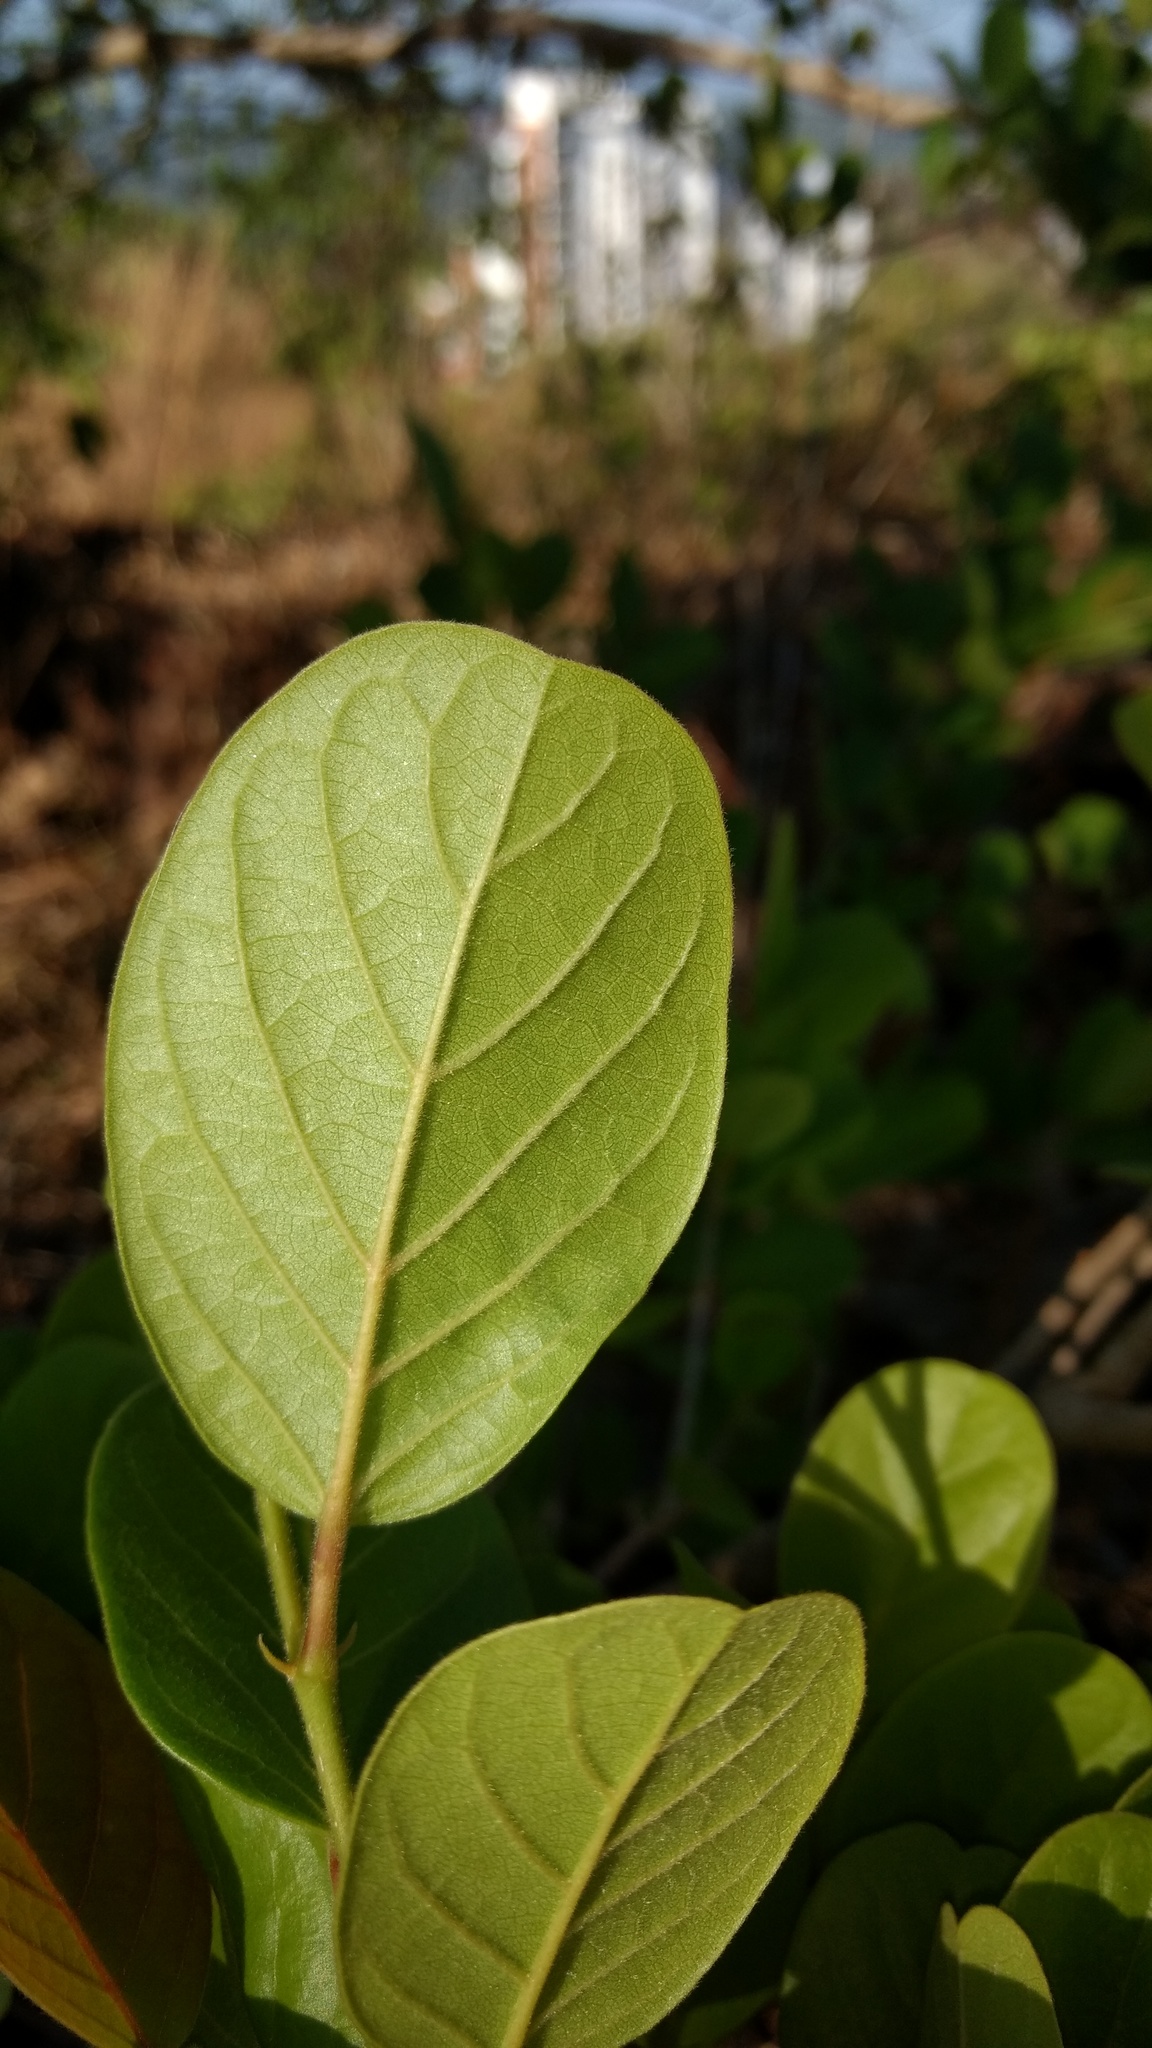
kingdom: Plantae
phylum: Tracheophyta
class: Magnoliopsida
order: Malpighiales
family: Phyllanthaceae
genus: Antidesma
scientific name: Antidesma ghaesembilla
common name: Black currant-tree
